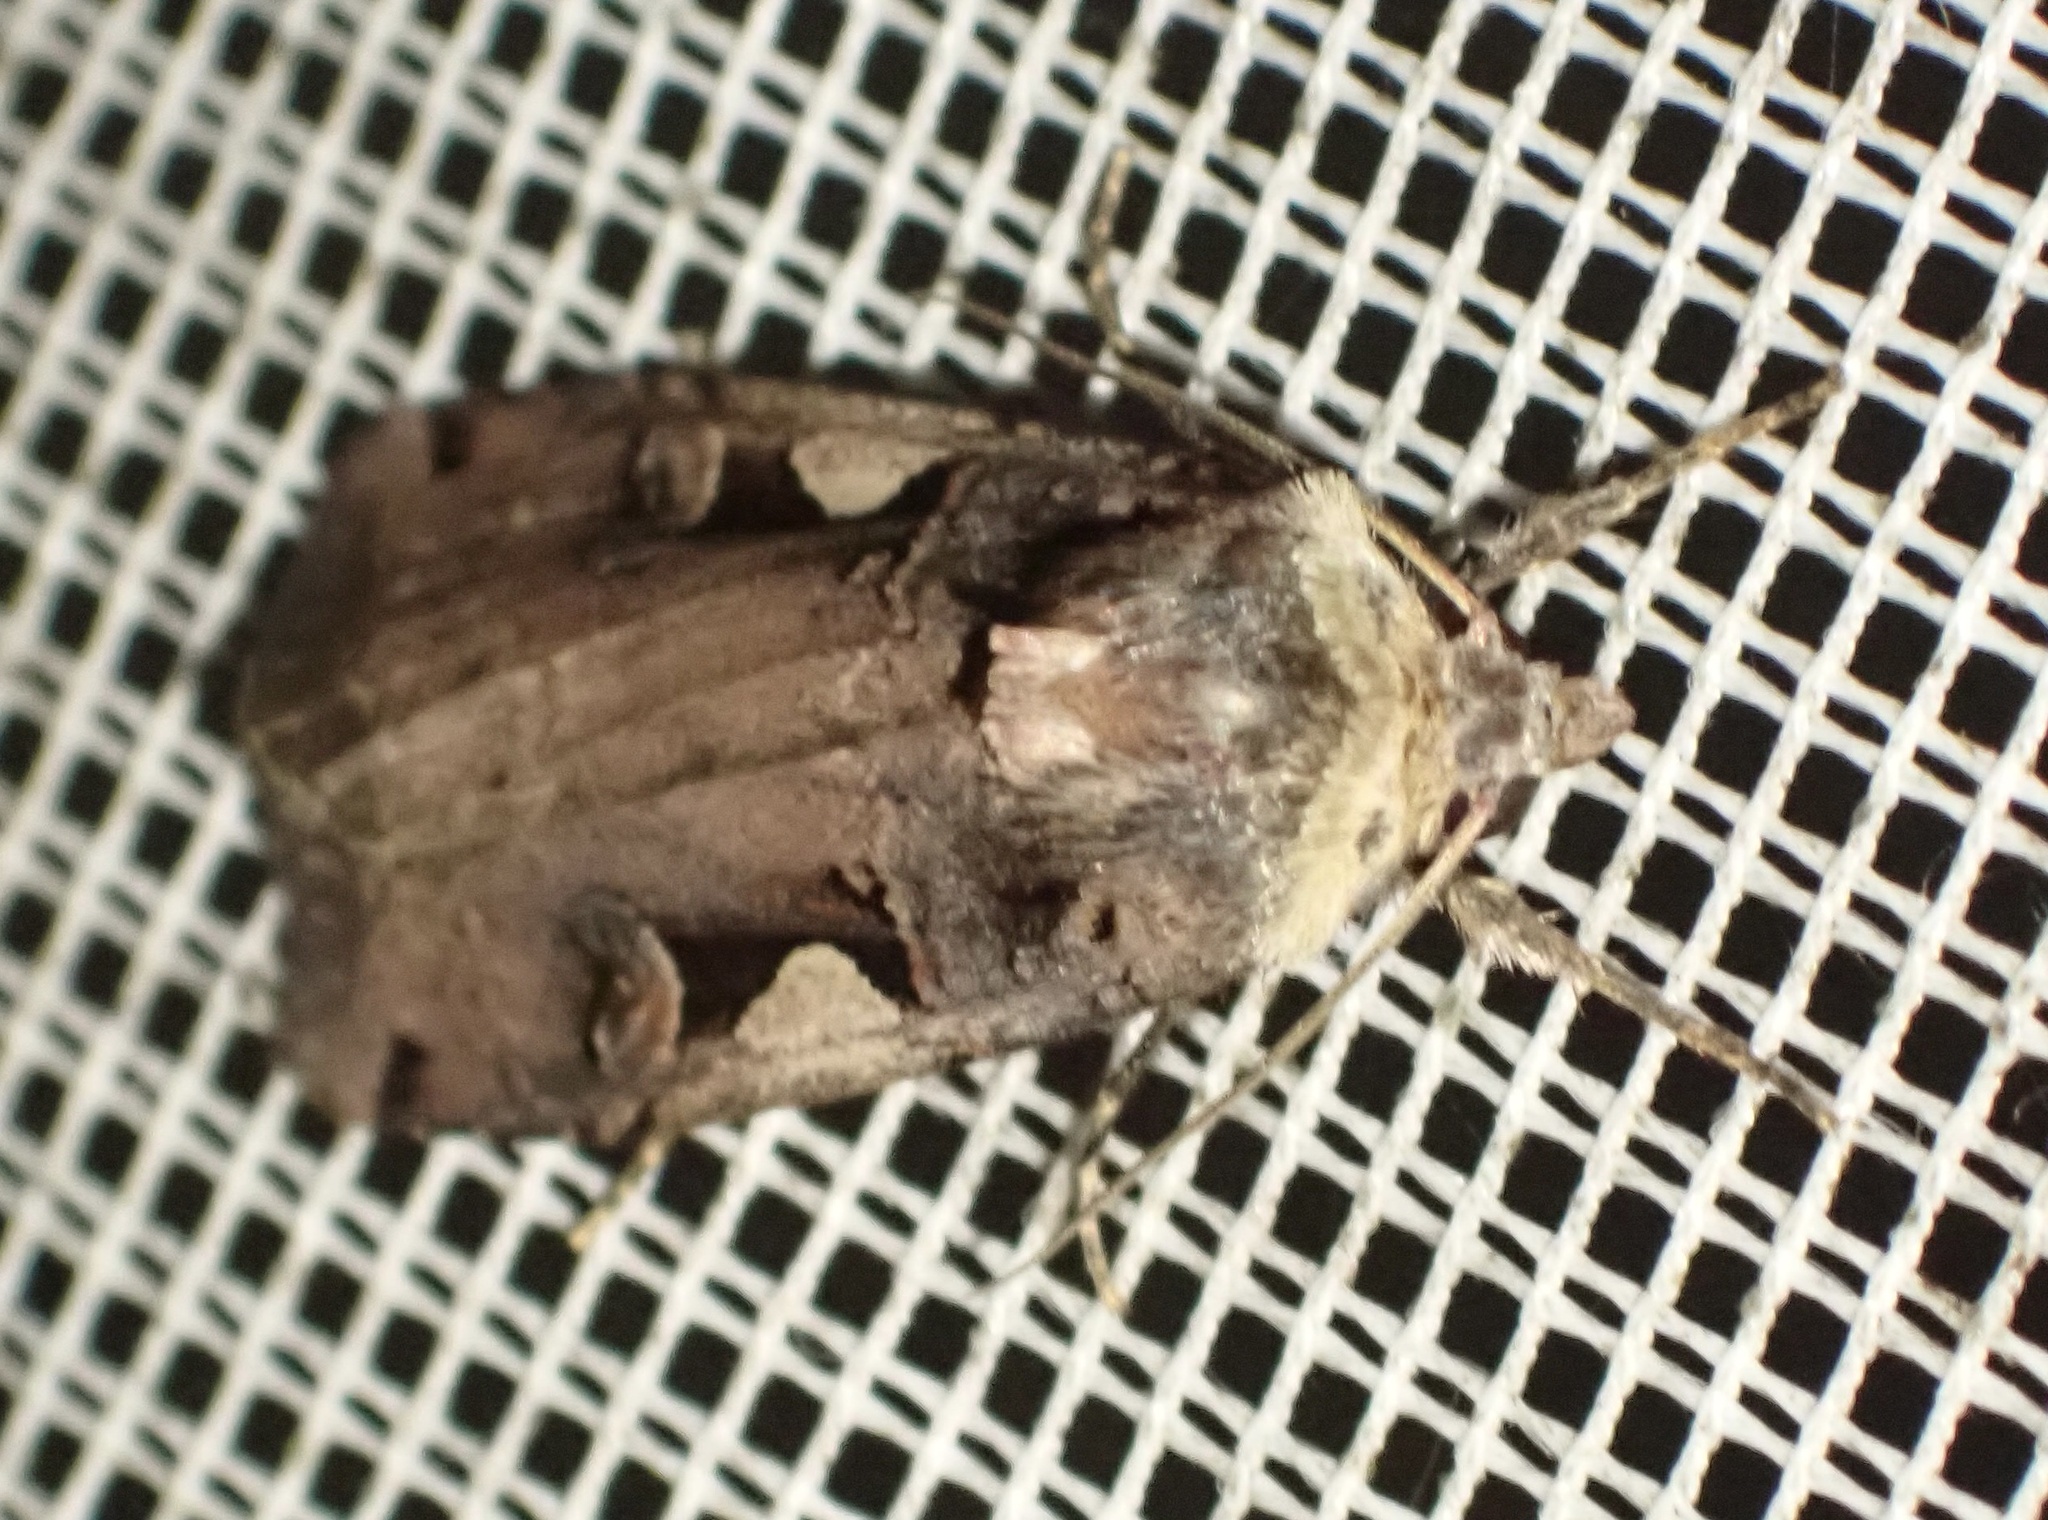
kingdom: Animalia
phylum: Arthropoda
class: Insecta
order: Lepidoptera
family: Noctuidae
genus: Xestia
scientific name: Xestia c-nigrum
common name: Setaceous hebrew character
